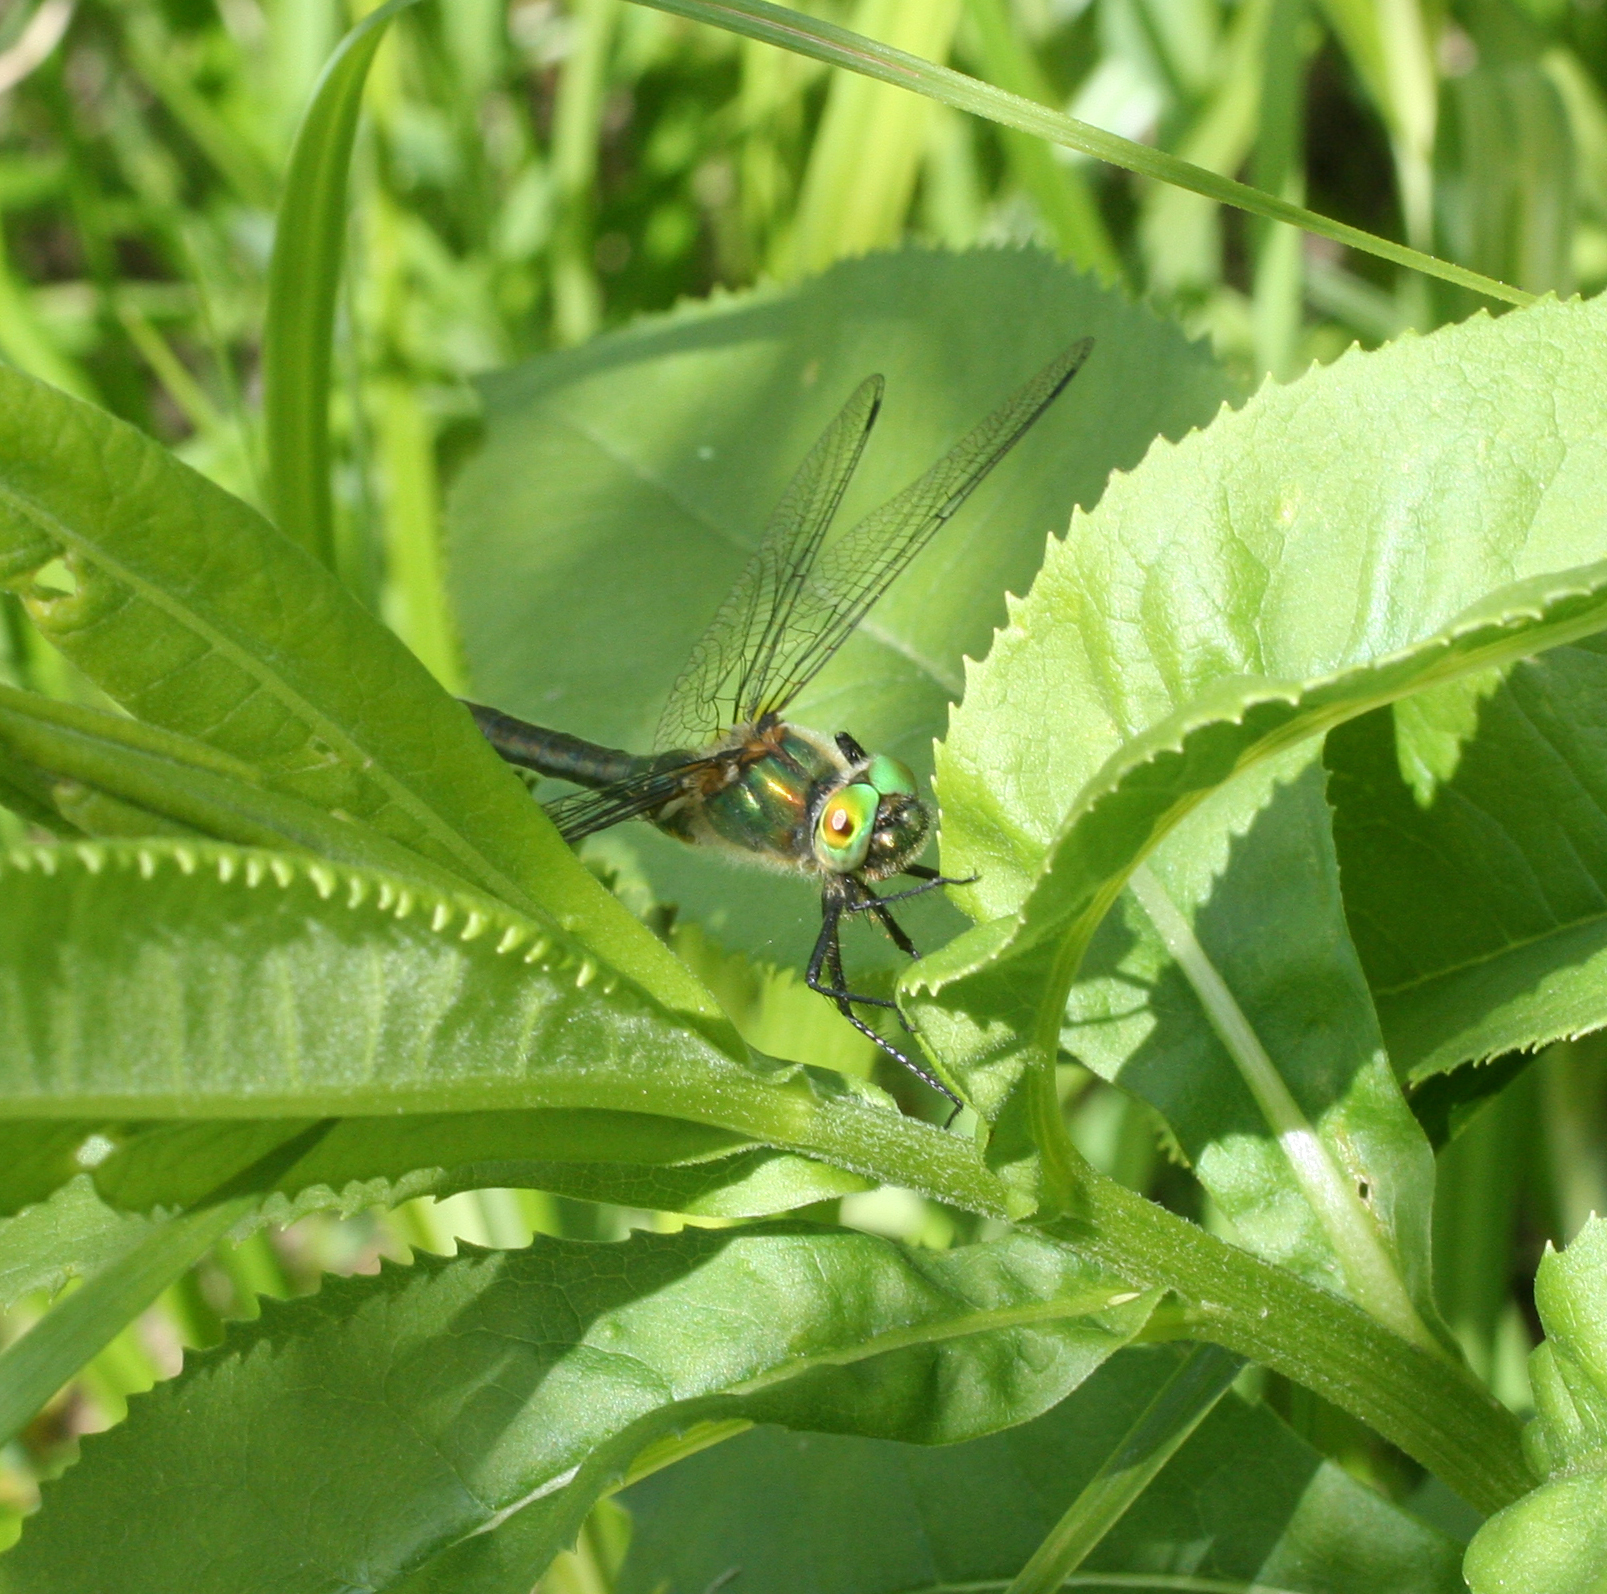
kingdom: Animalia
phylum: Arthropoda
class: Insecta
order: Odonata
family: Corduliidae
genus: Cordulia
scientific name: Cordulia aenea
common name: Downy emerald
